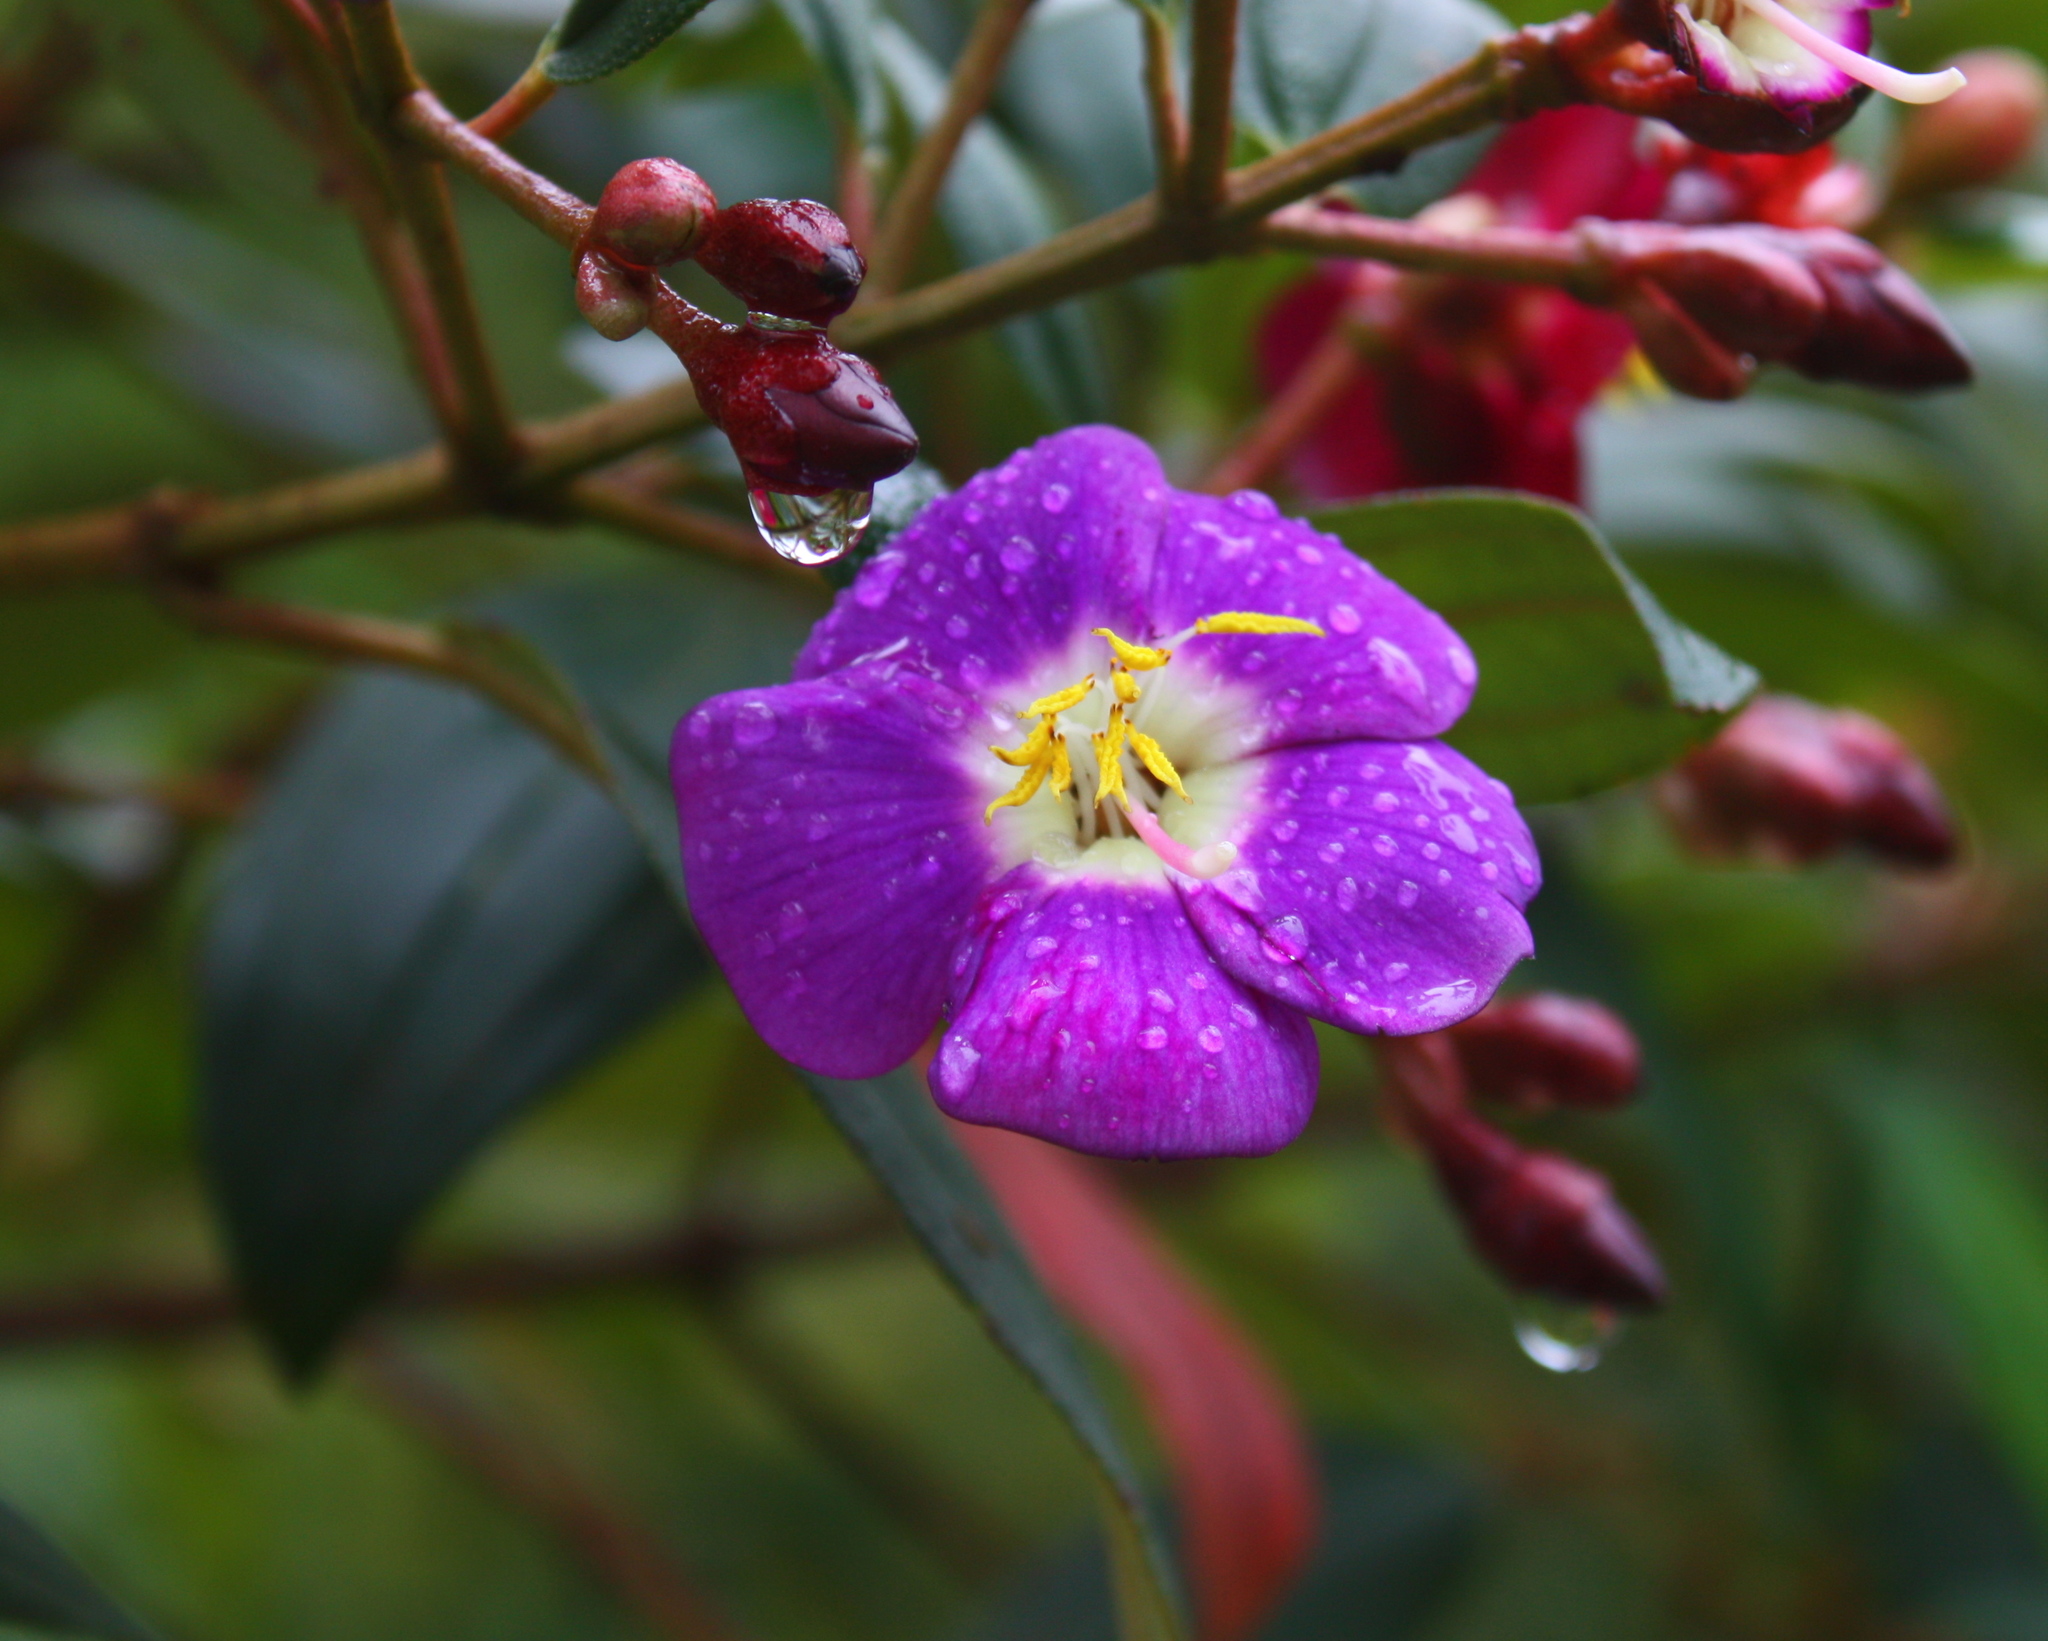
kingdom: Plantae
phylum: Tracheophyta
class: Magnoliopsida
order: Myrtales
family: Melastomataceae
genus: Andesanthus
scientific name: Andesanthus lepidotus
